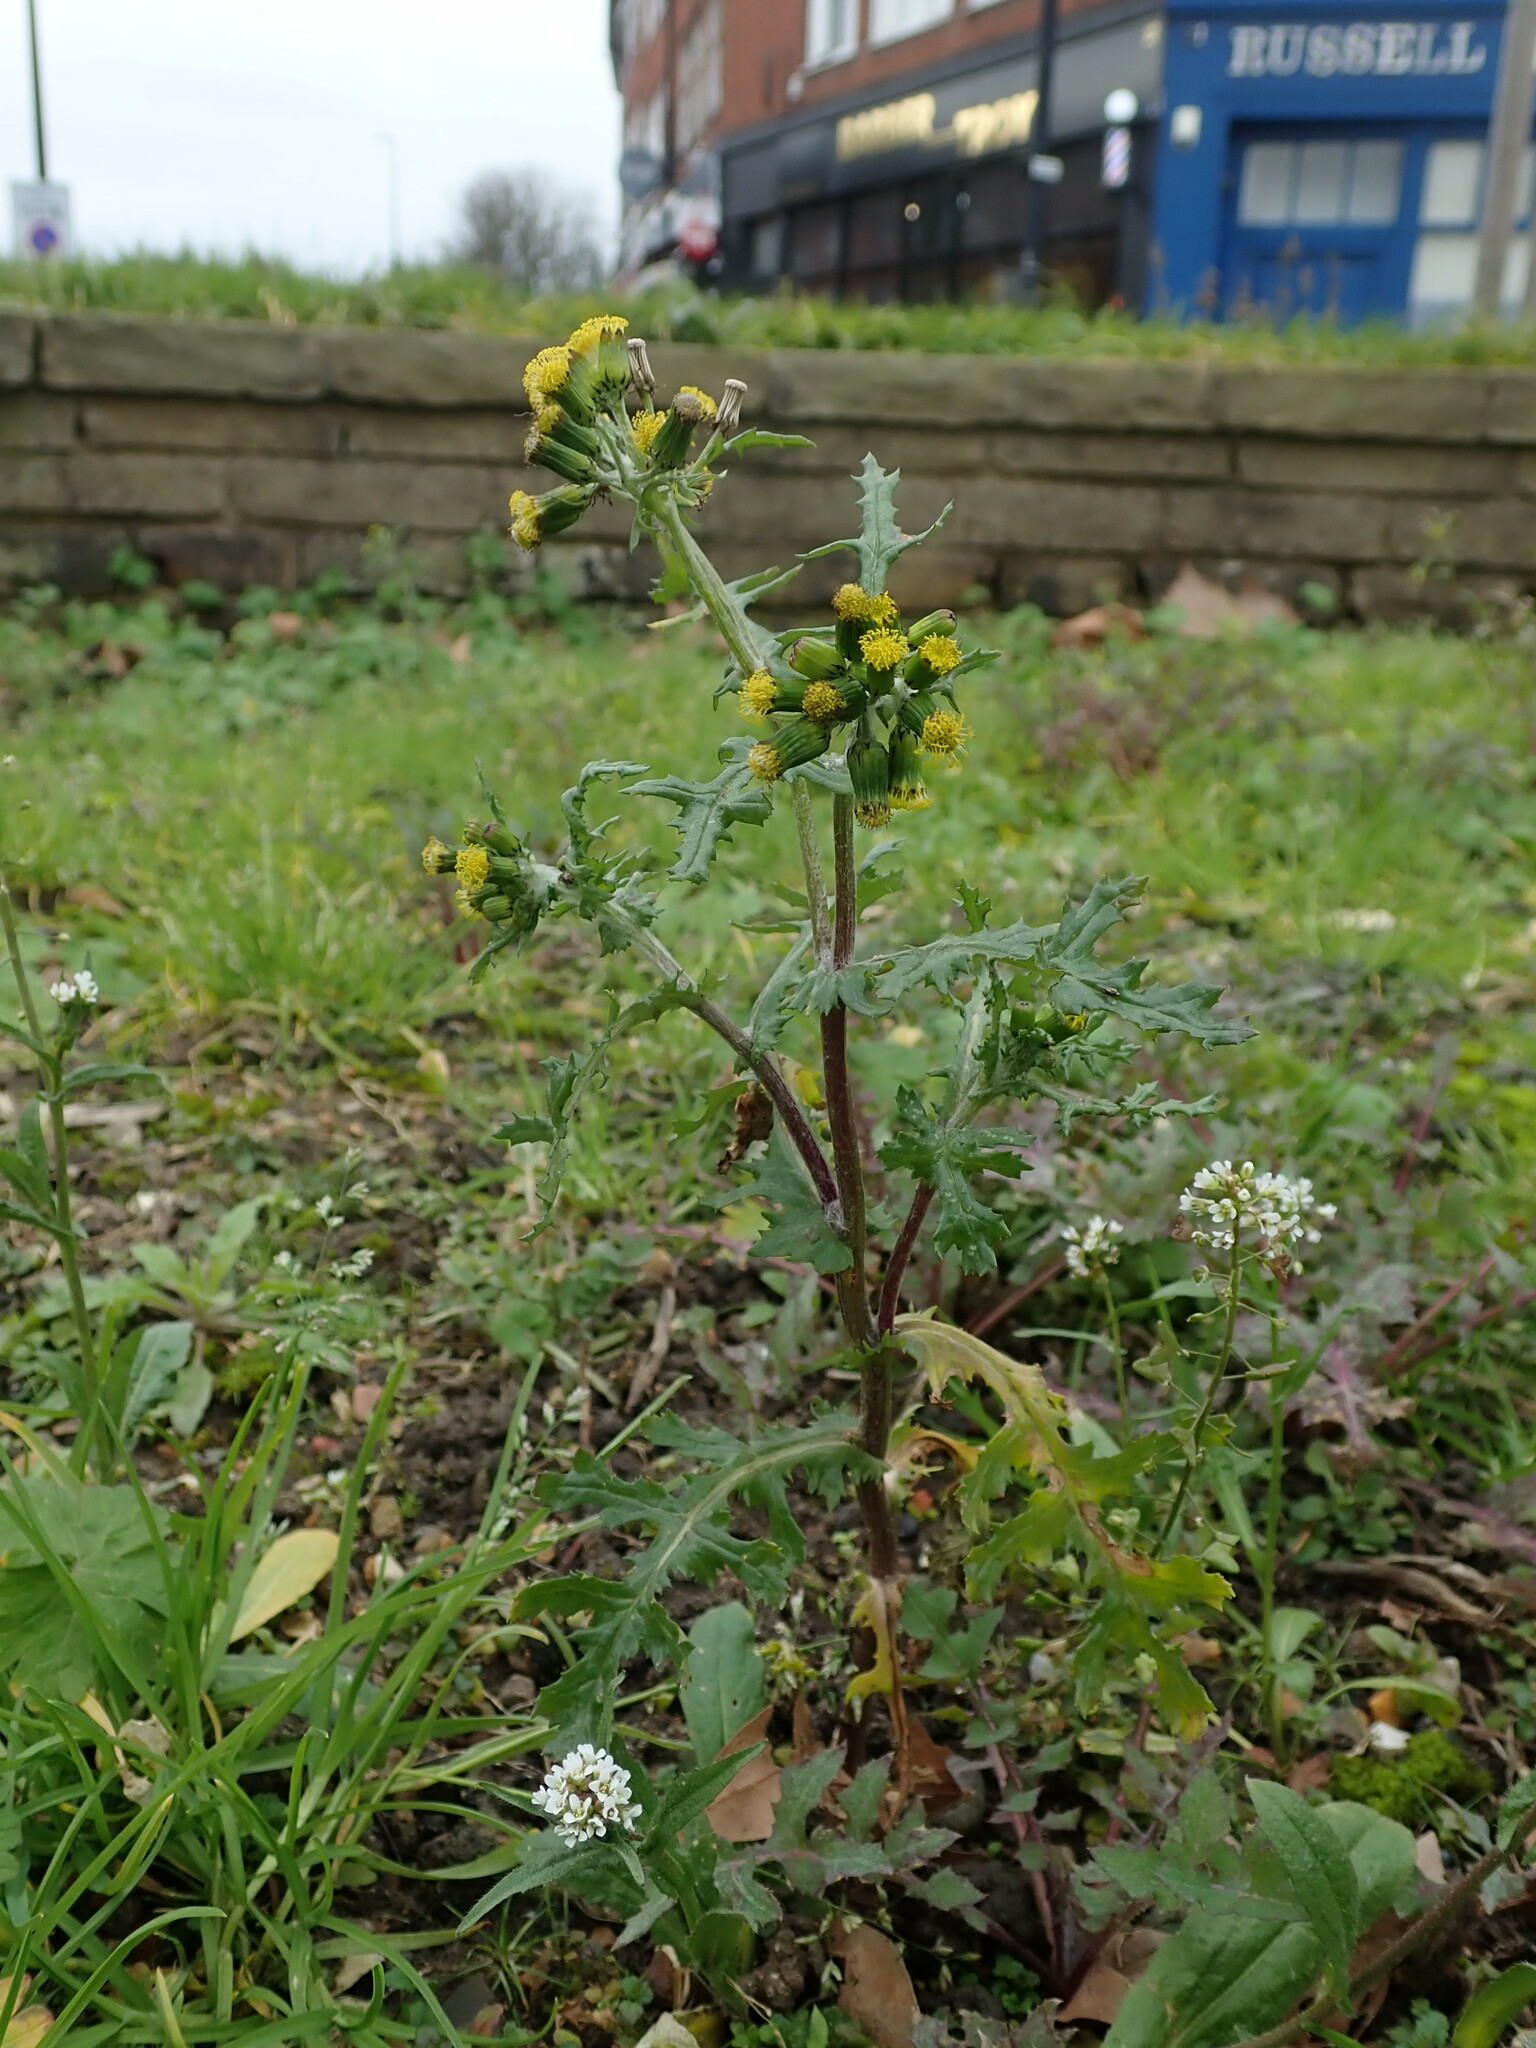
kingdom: Plantae
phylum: Tracheophyta
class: Magnoliopsida
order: Asterales
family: Asteraceae
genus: Senecio
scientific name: Senecio vulgaris
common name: Old-man-in-the-spring
